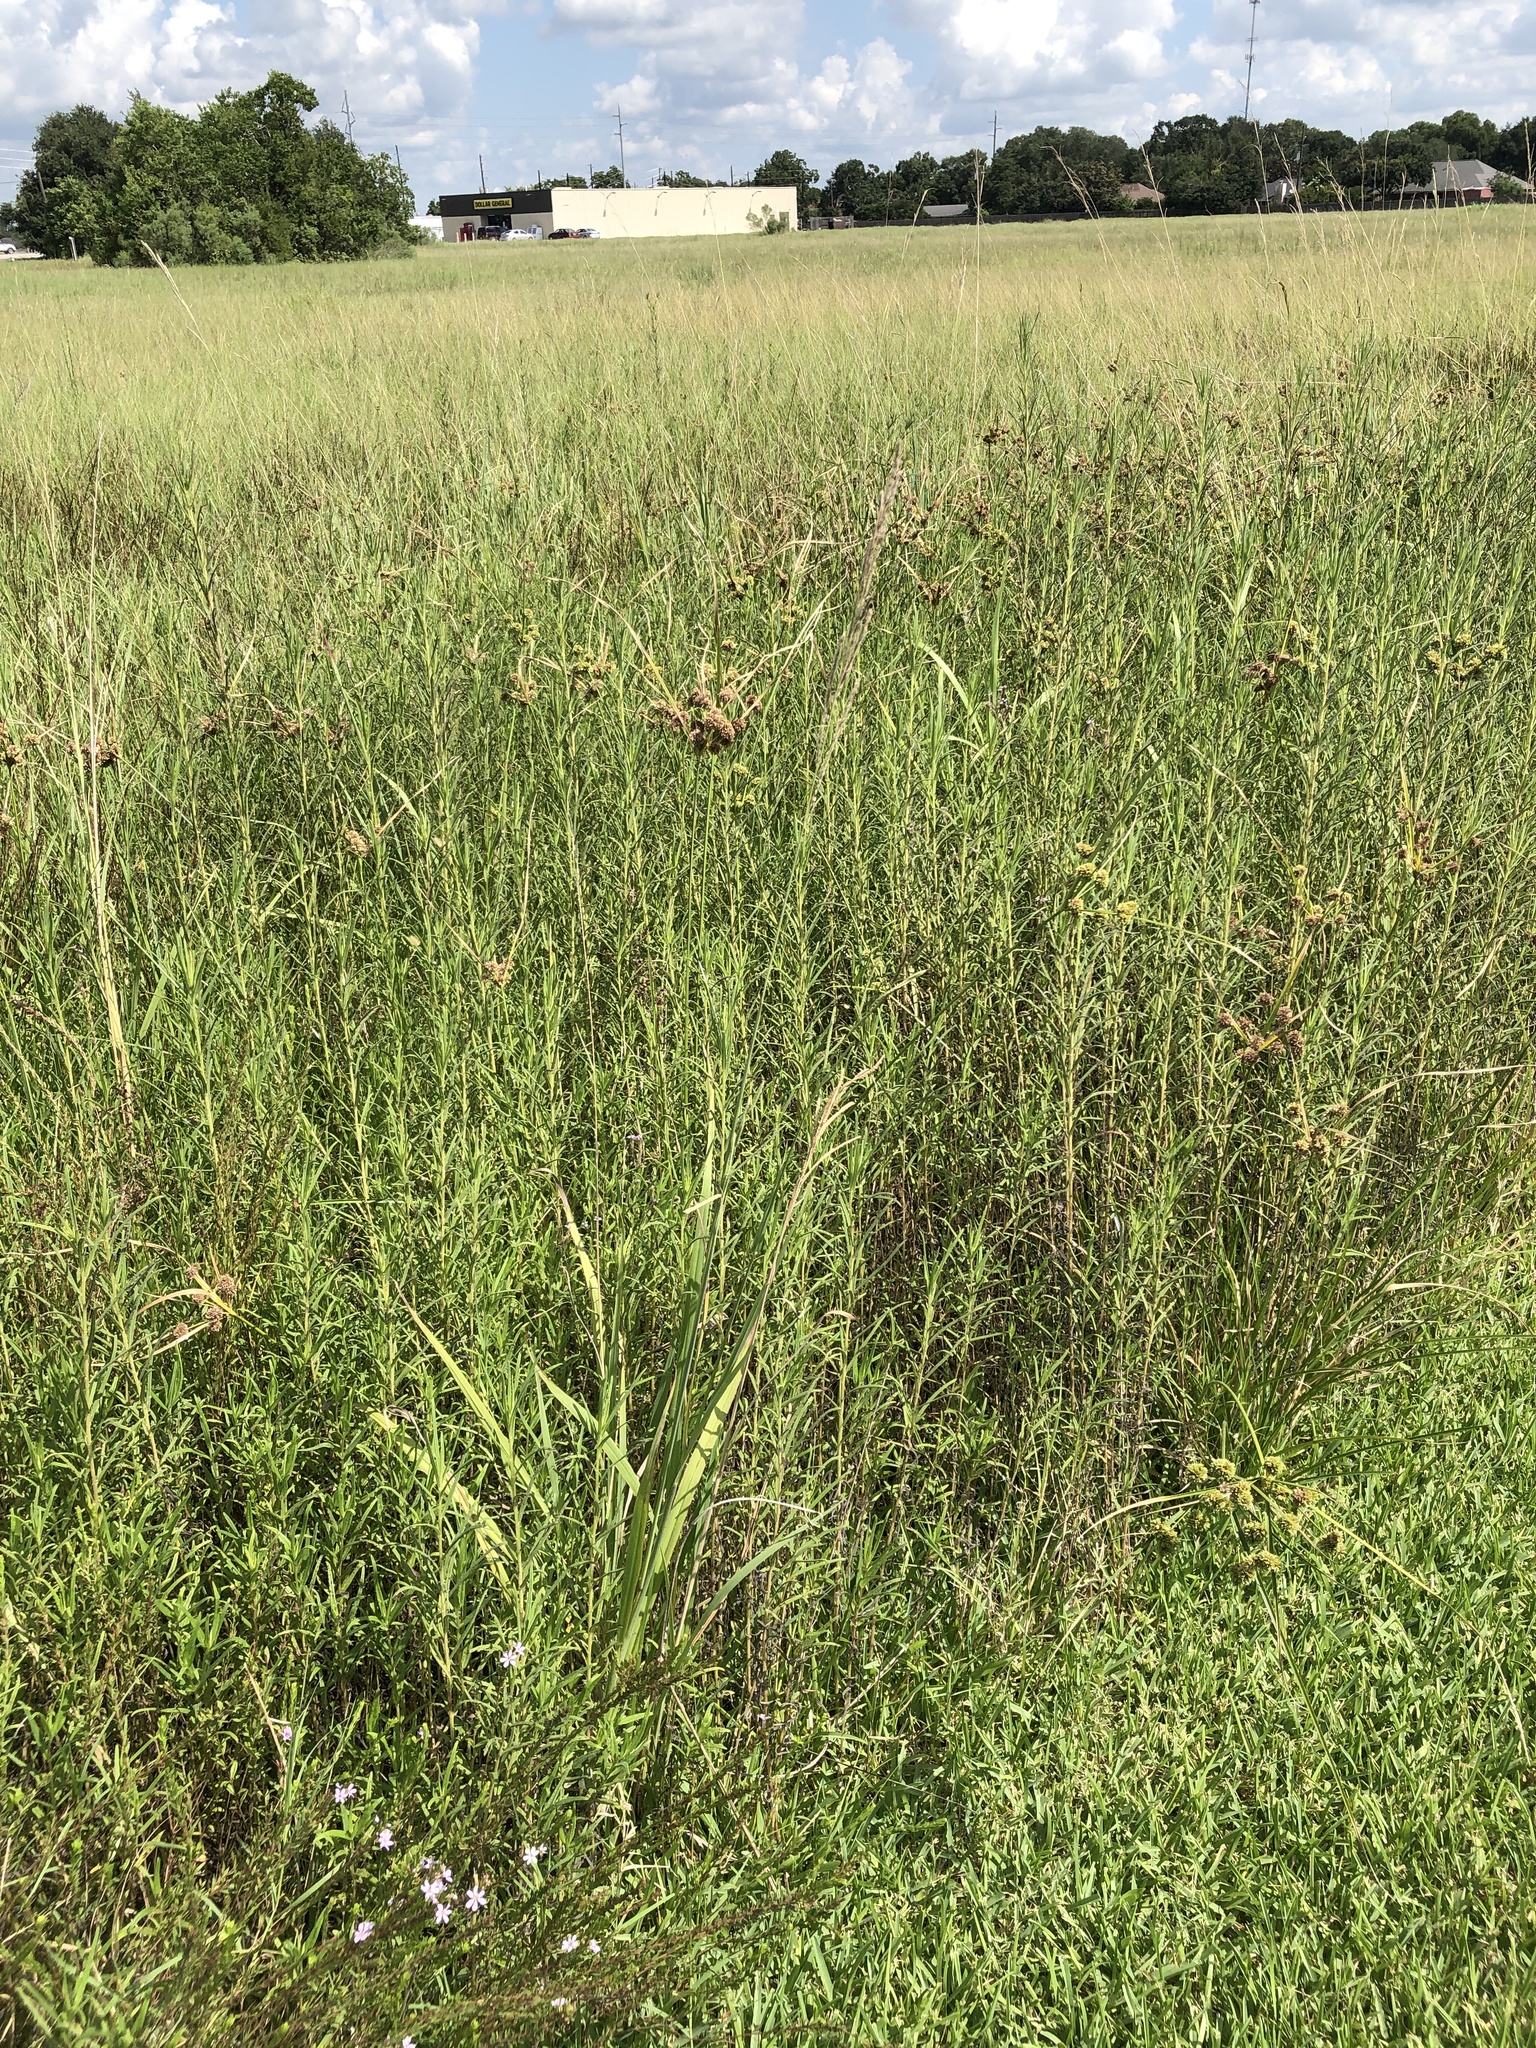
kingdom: Plantae
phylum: Tracheophyta
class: Liliopsida
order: Poales
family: Poaceae
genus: Paspalum
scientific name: Paspalum urvillei
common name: Vasey's grass
